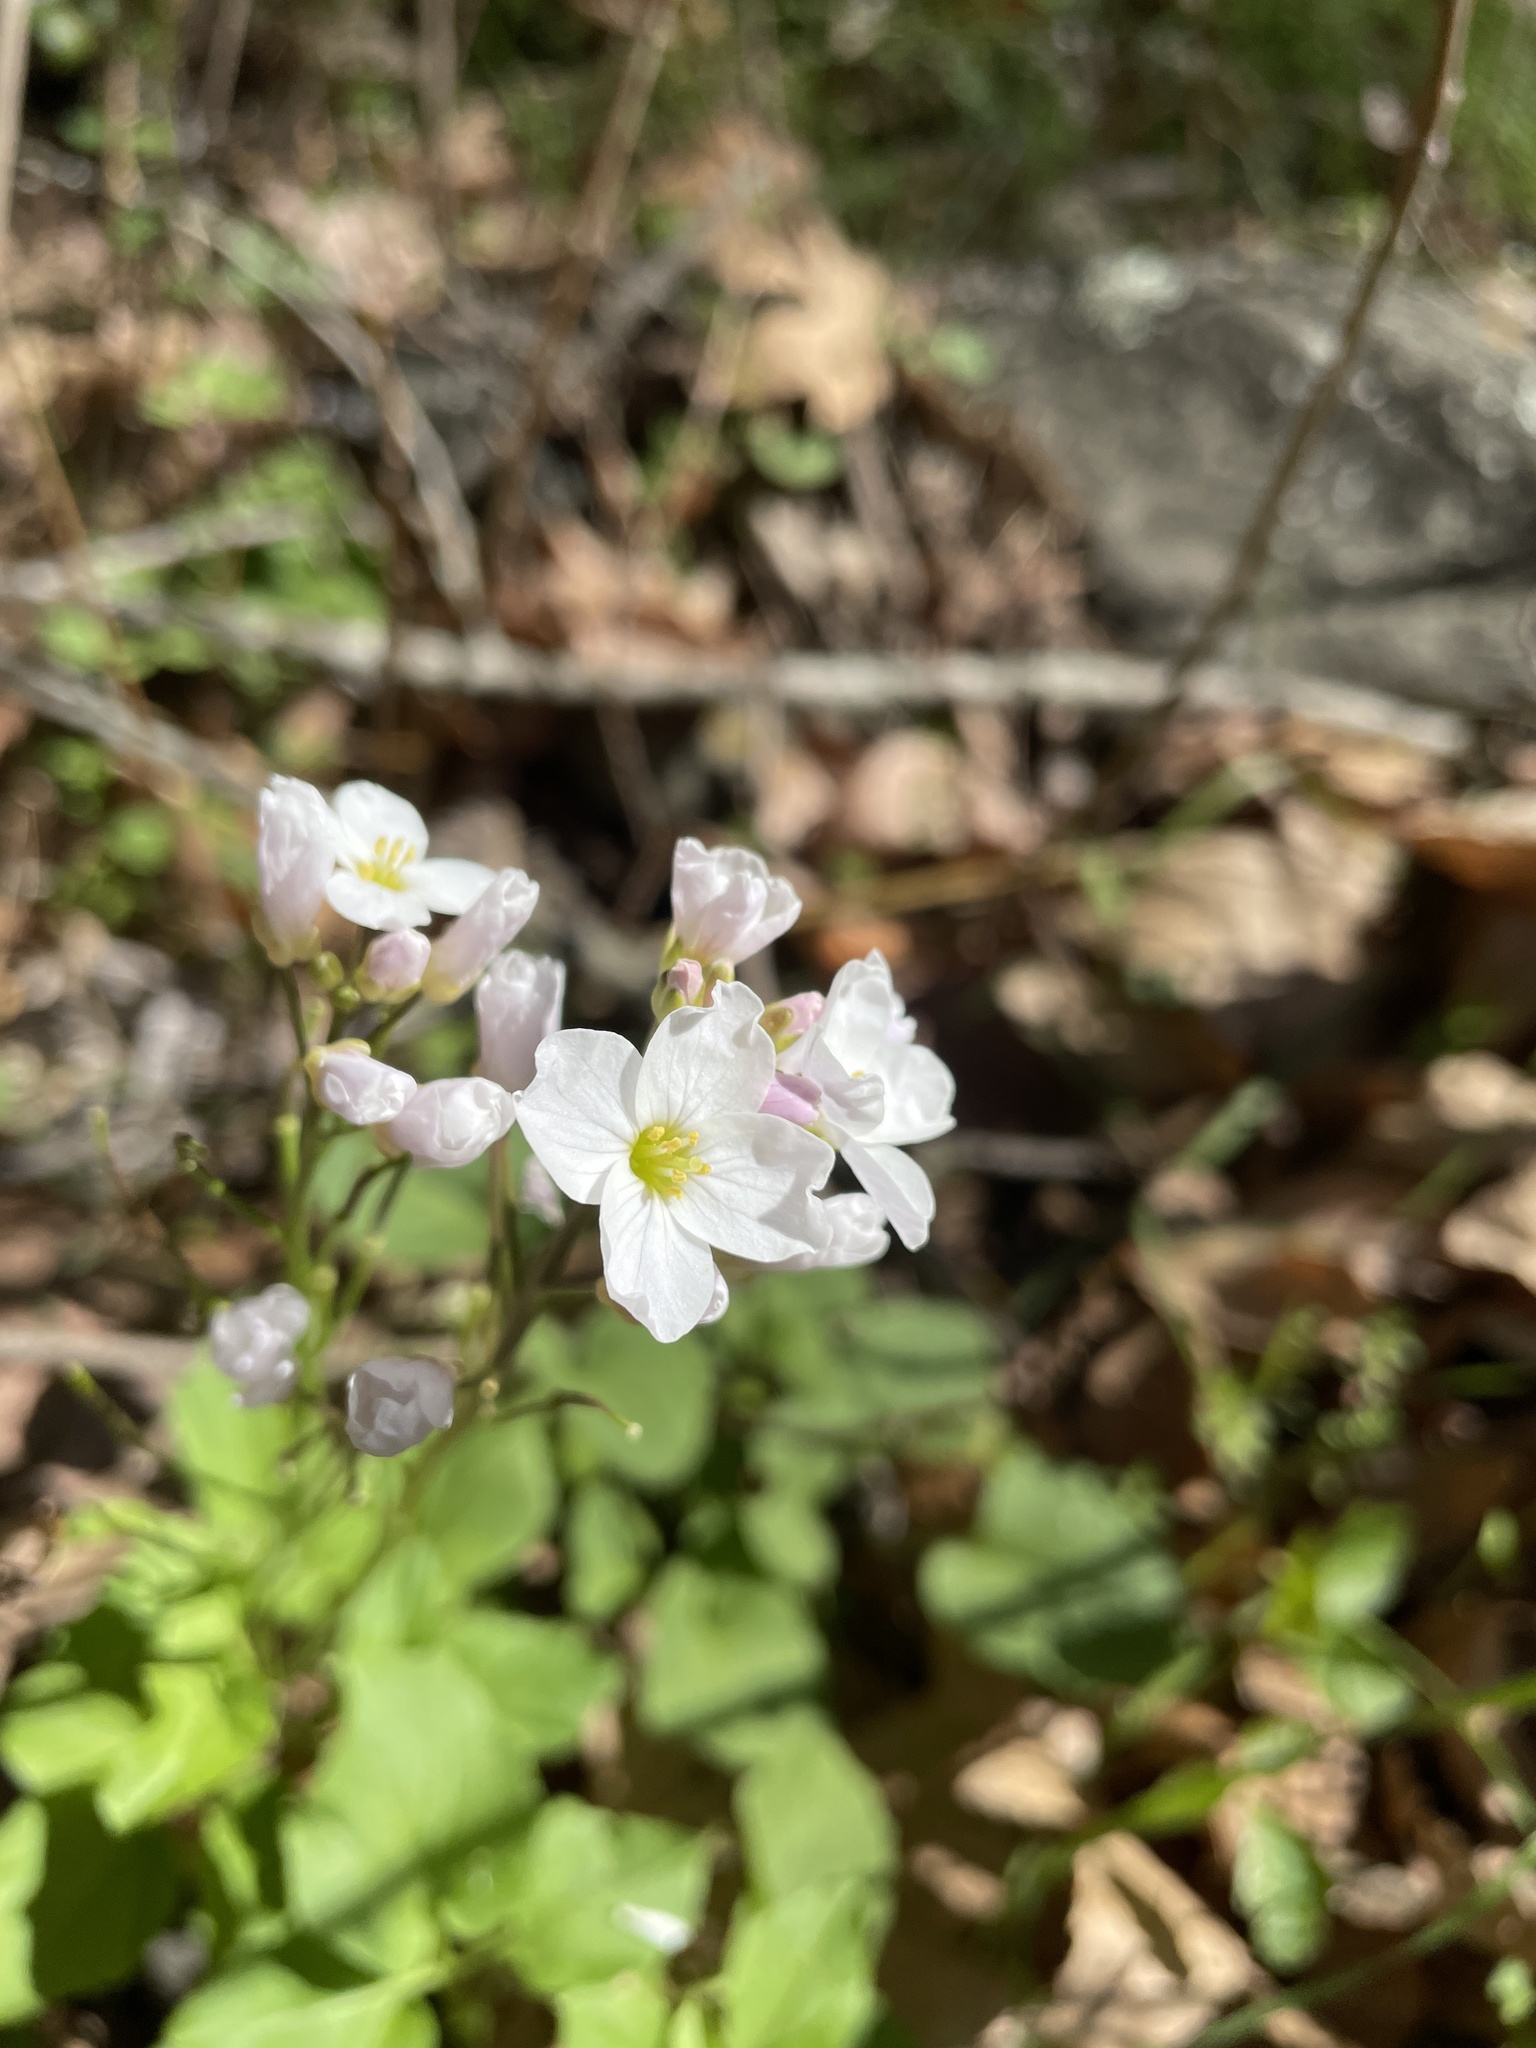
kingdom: Plantae
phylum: Tracheophyta
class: Magnoliopsida
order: Brassicales
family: Brassicaceae
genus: Cardamine
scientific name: Cardamine californica
